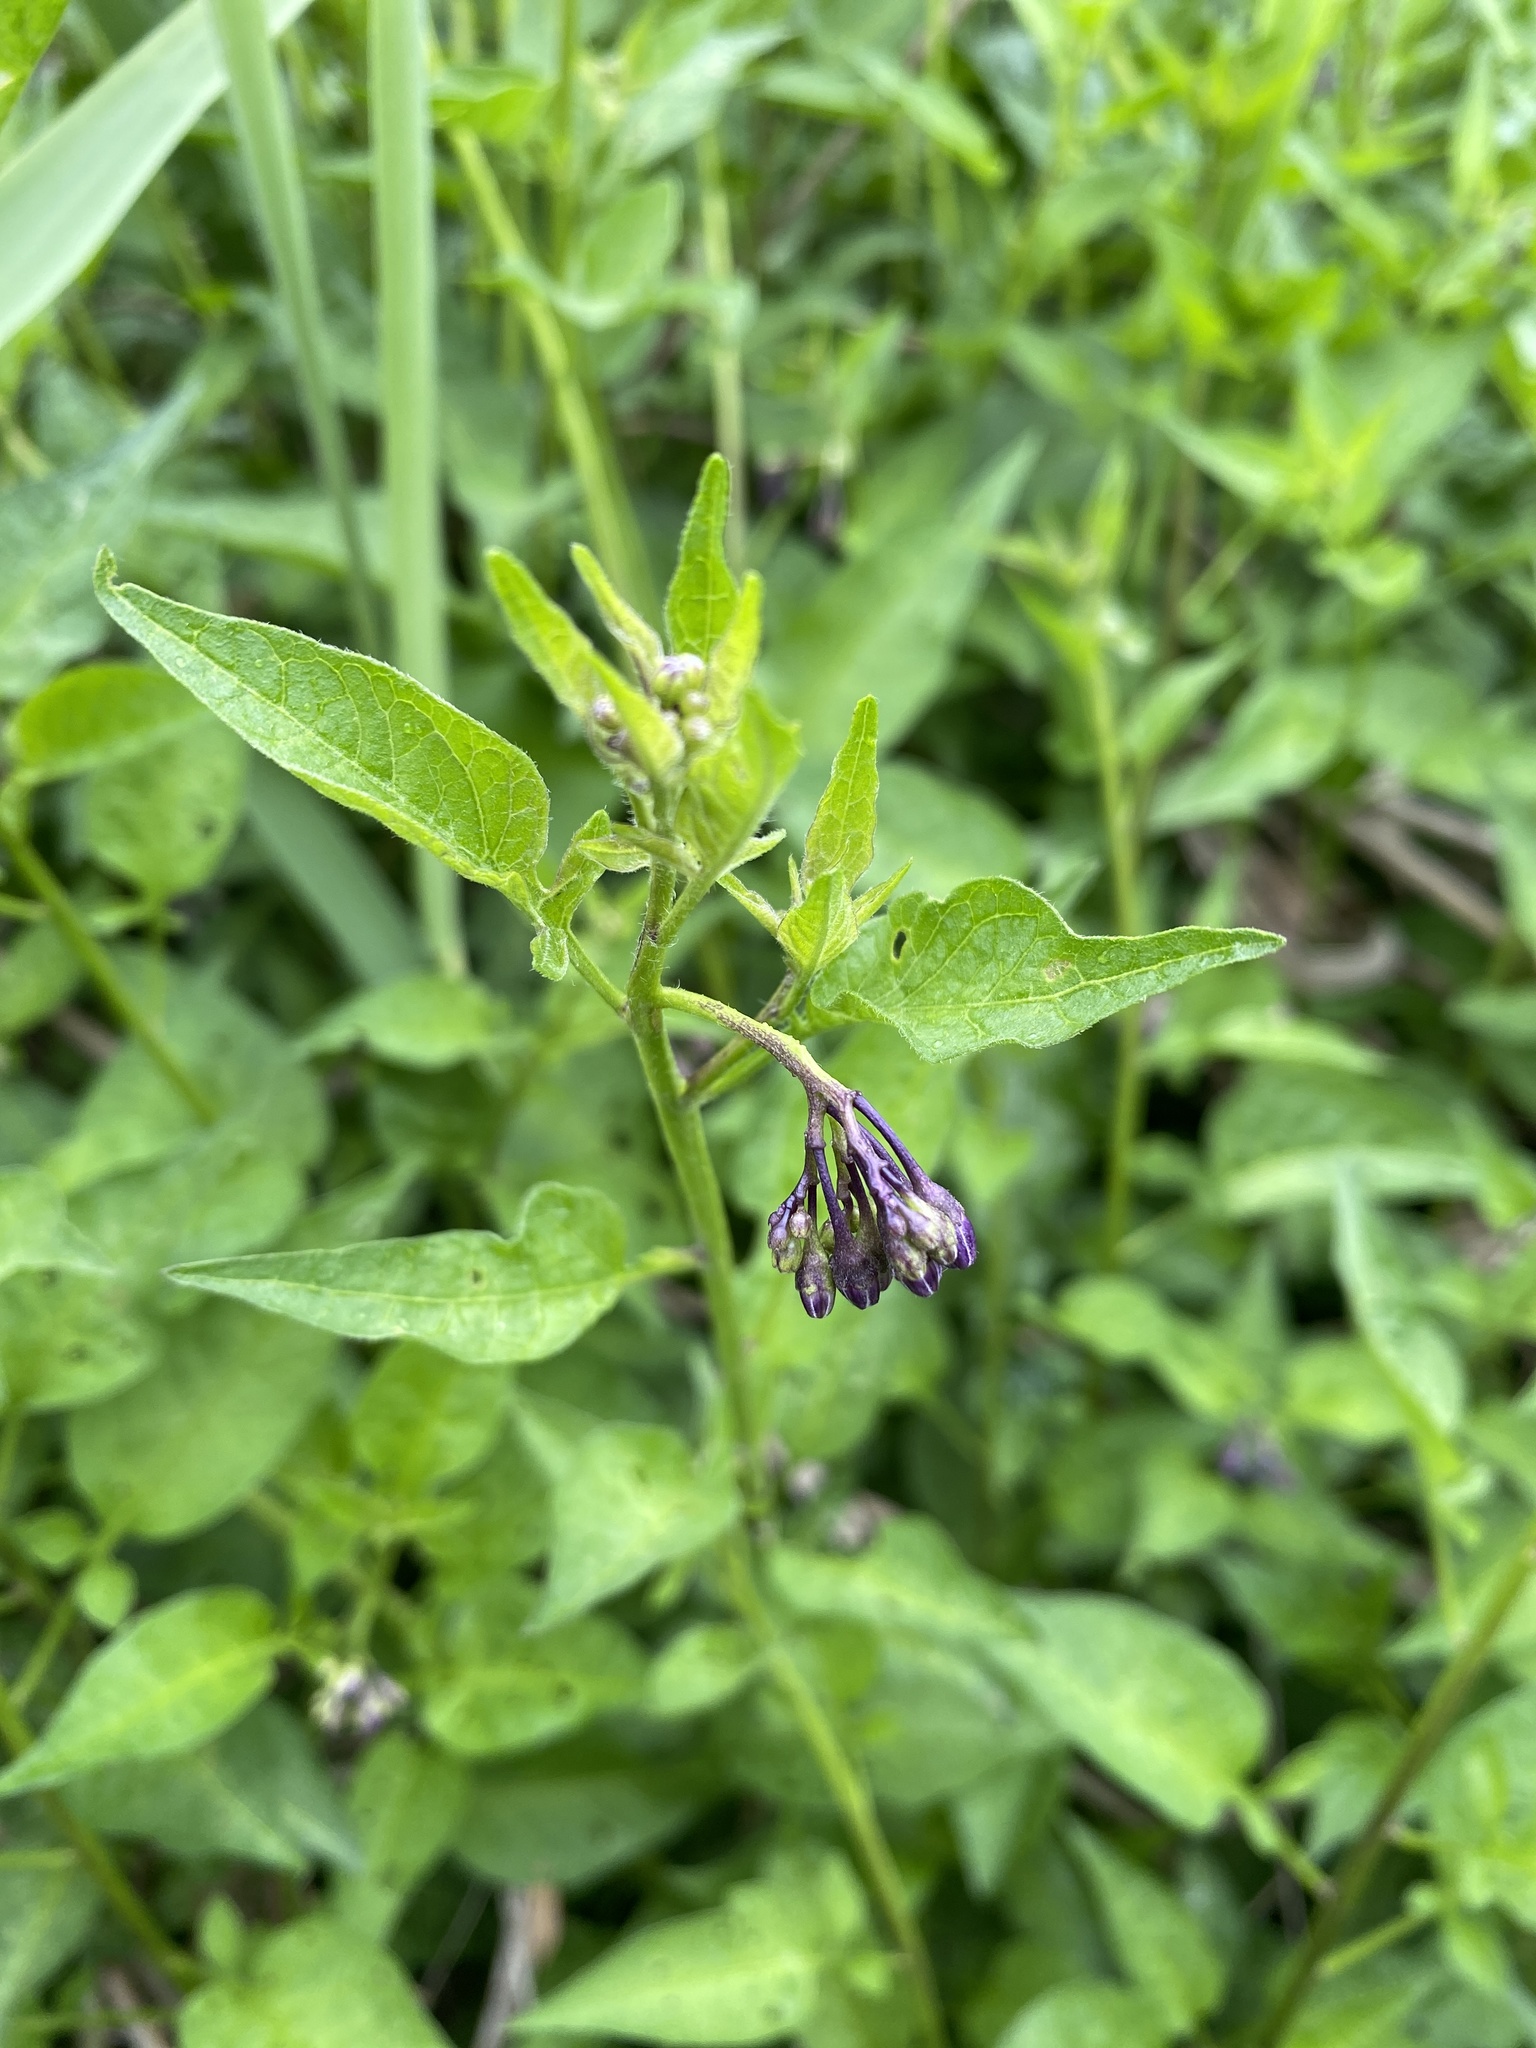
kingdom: Plantae
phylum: Tracheophyta
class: Magnoliopsida
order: Solanales
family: Solanaceae
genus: Solanum
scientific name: Solanum dulcamara
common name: Climbing nightshade
